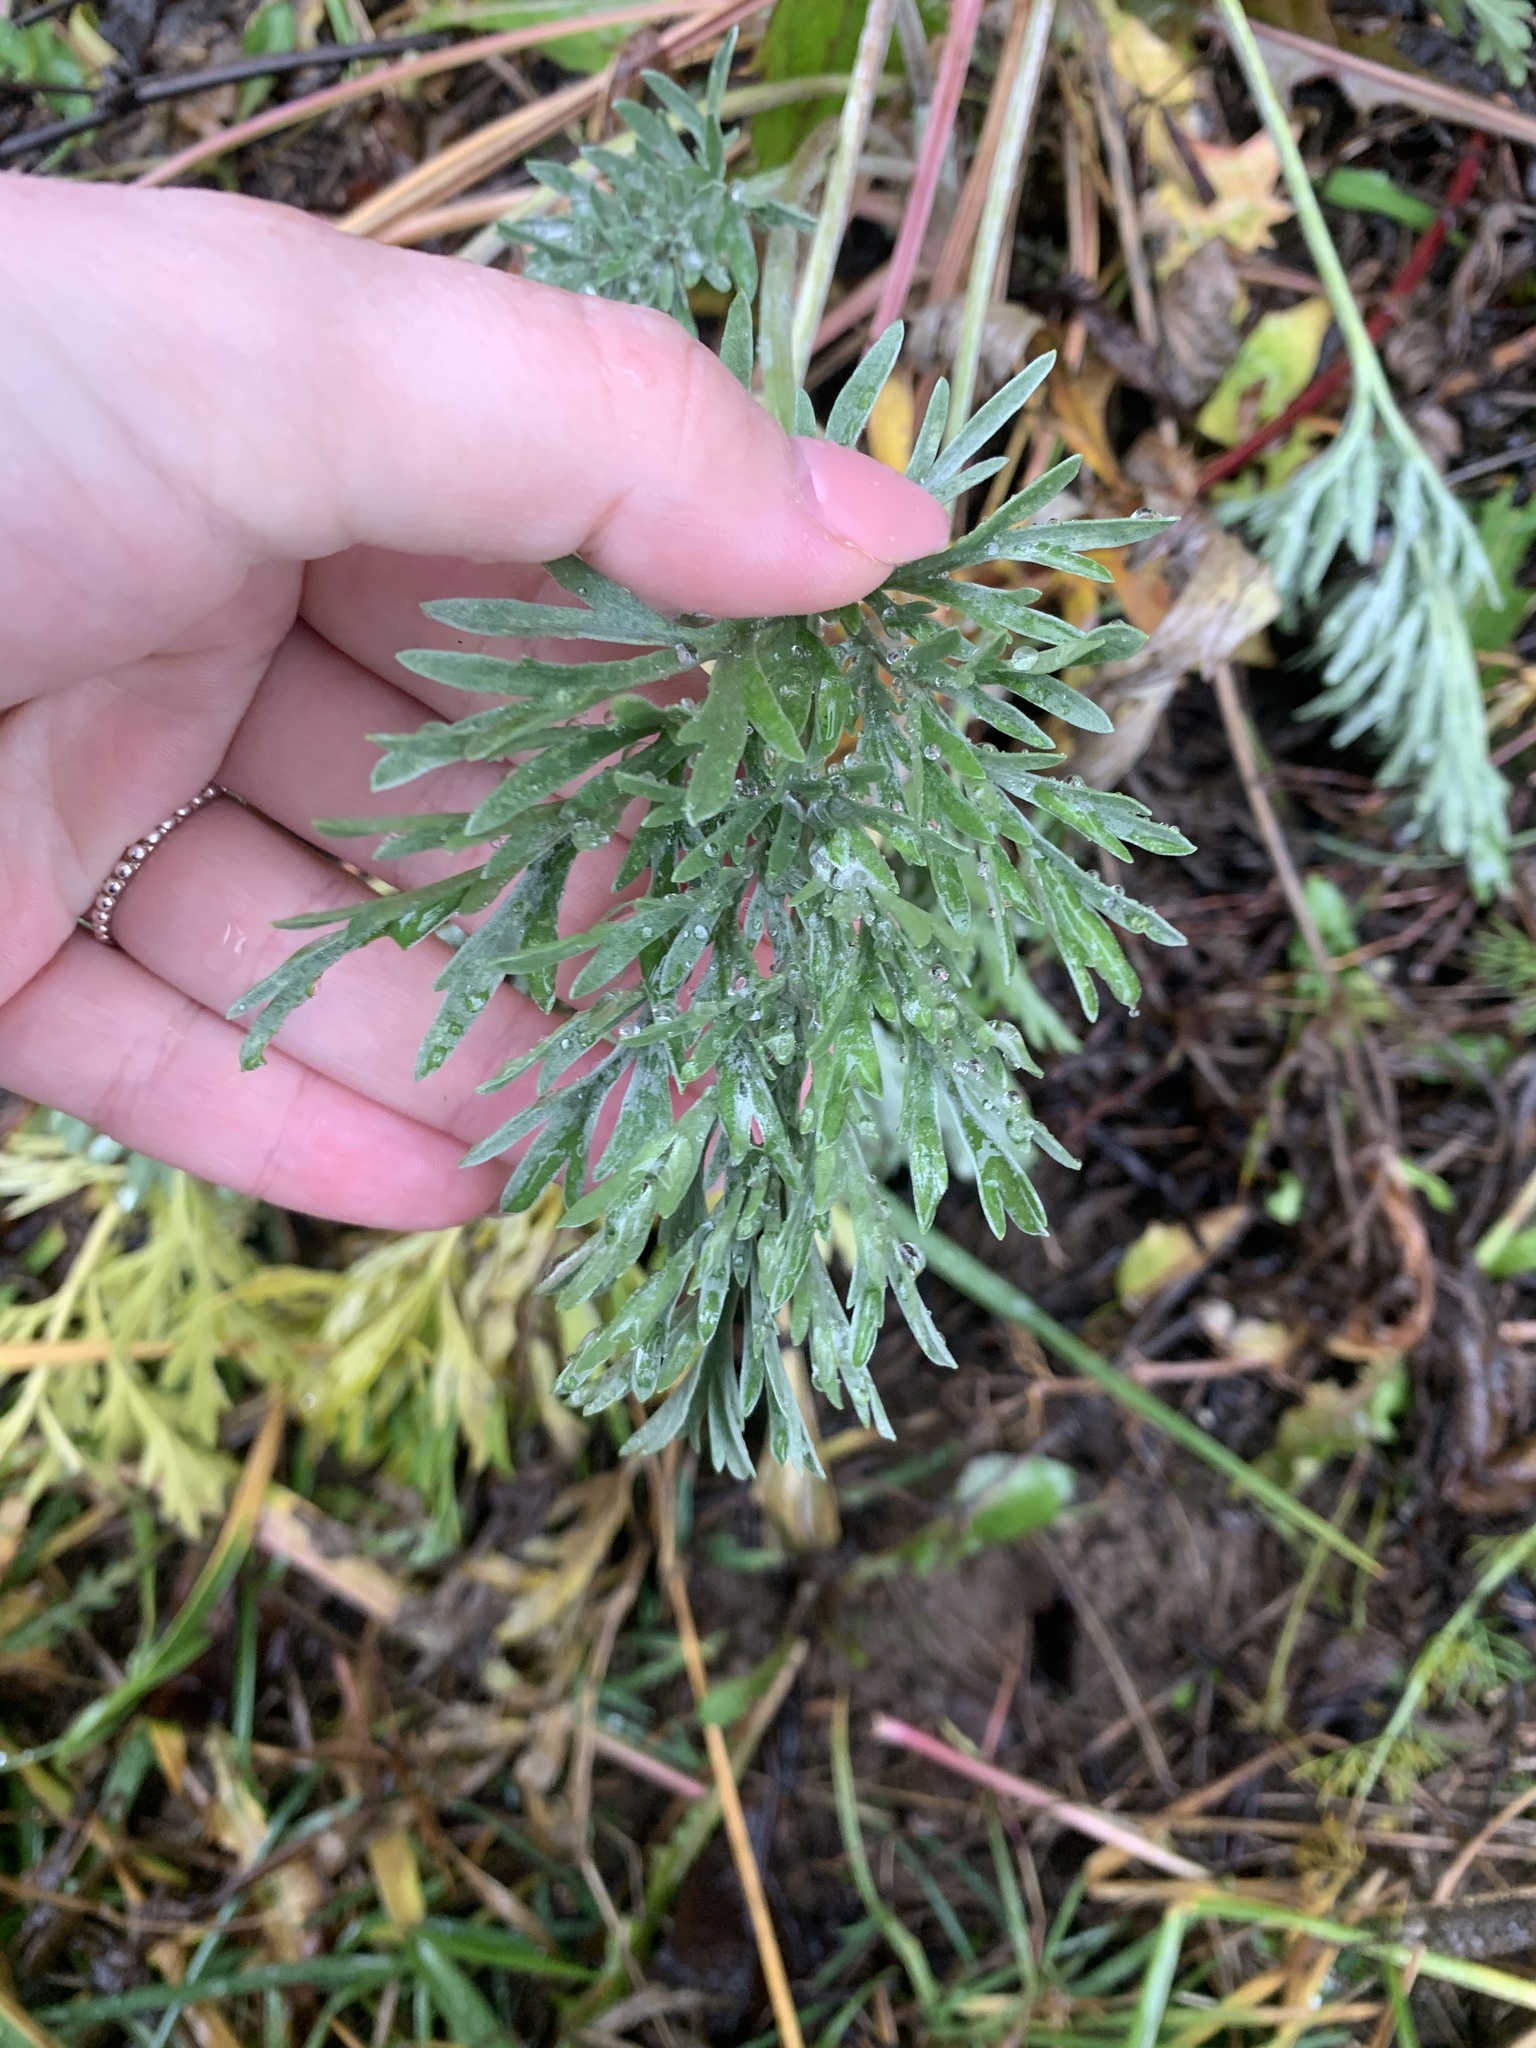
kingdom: Plantae
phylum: Tracheophyta
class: Magnoliopsida
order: Asterales
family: Asteraceae
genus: Artemisia
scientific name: Artemisia absinthium
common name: Wormwood
